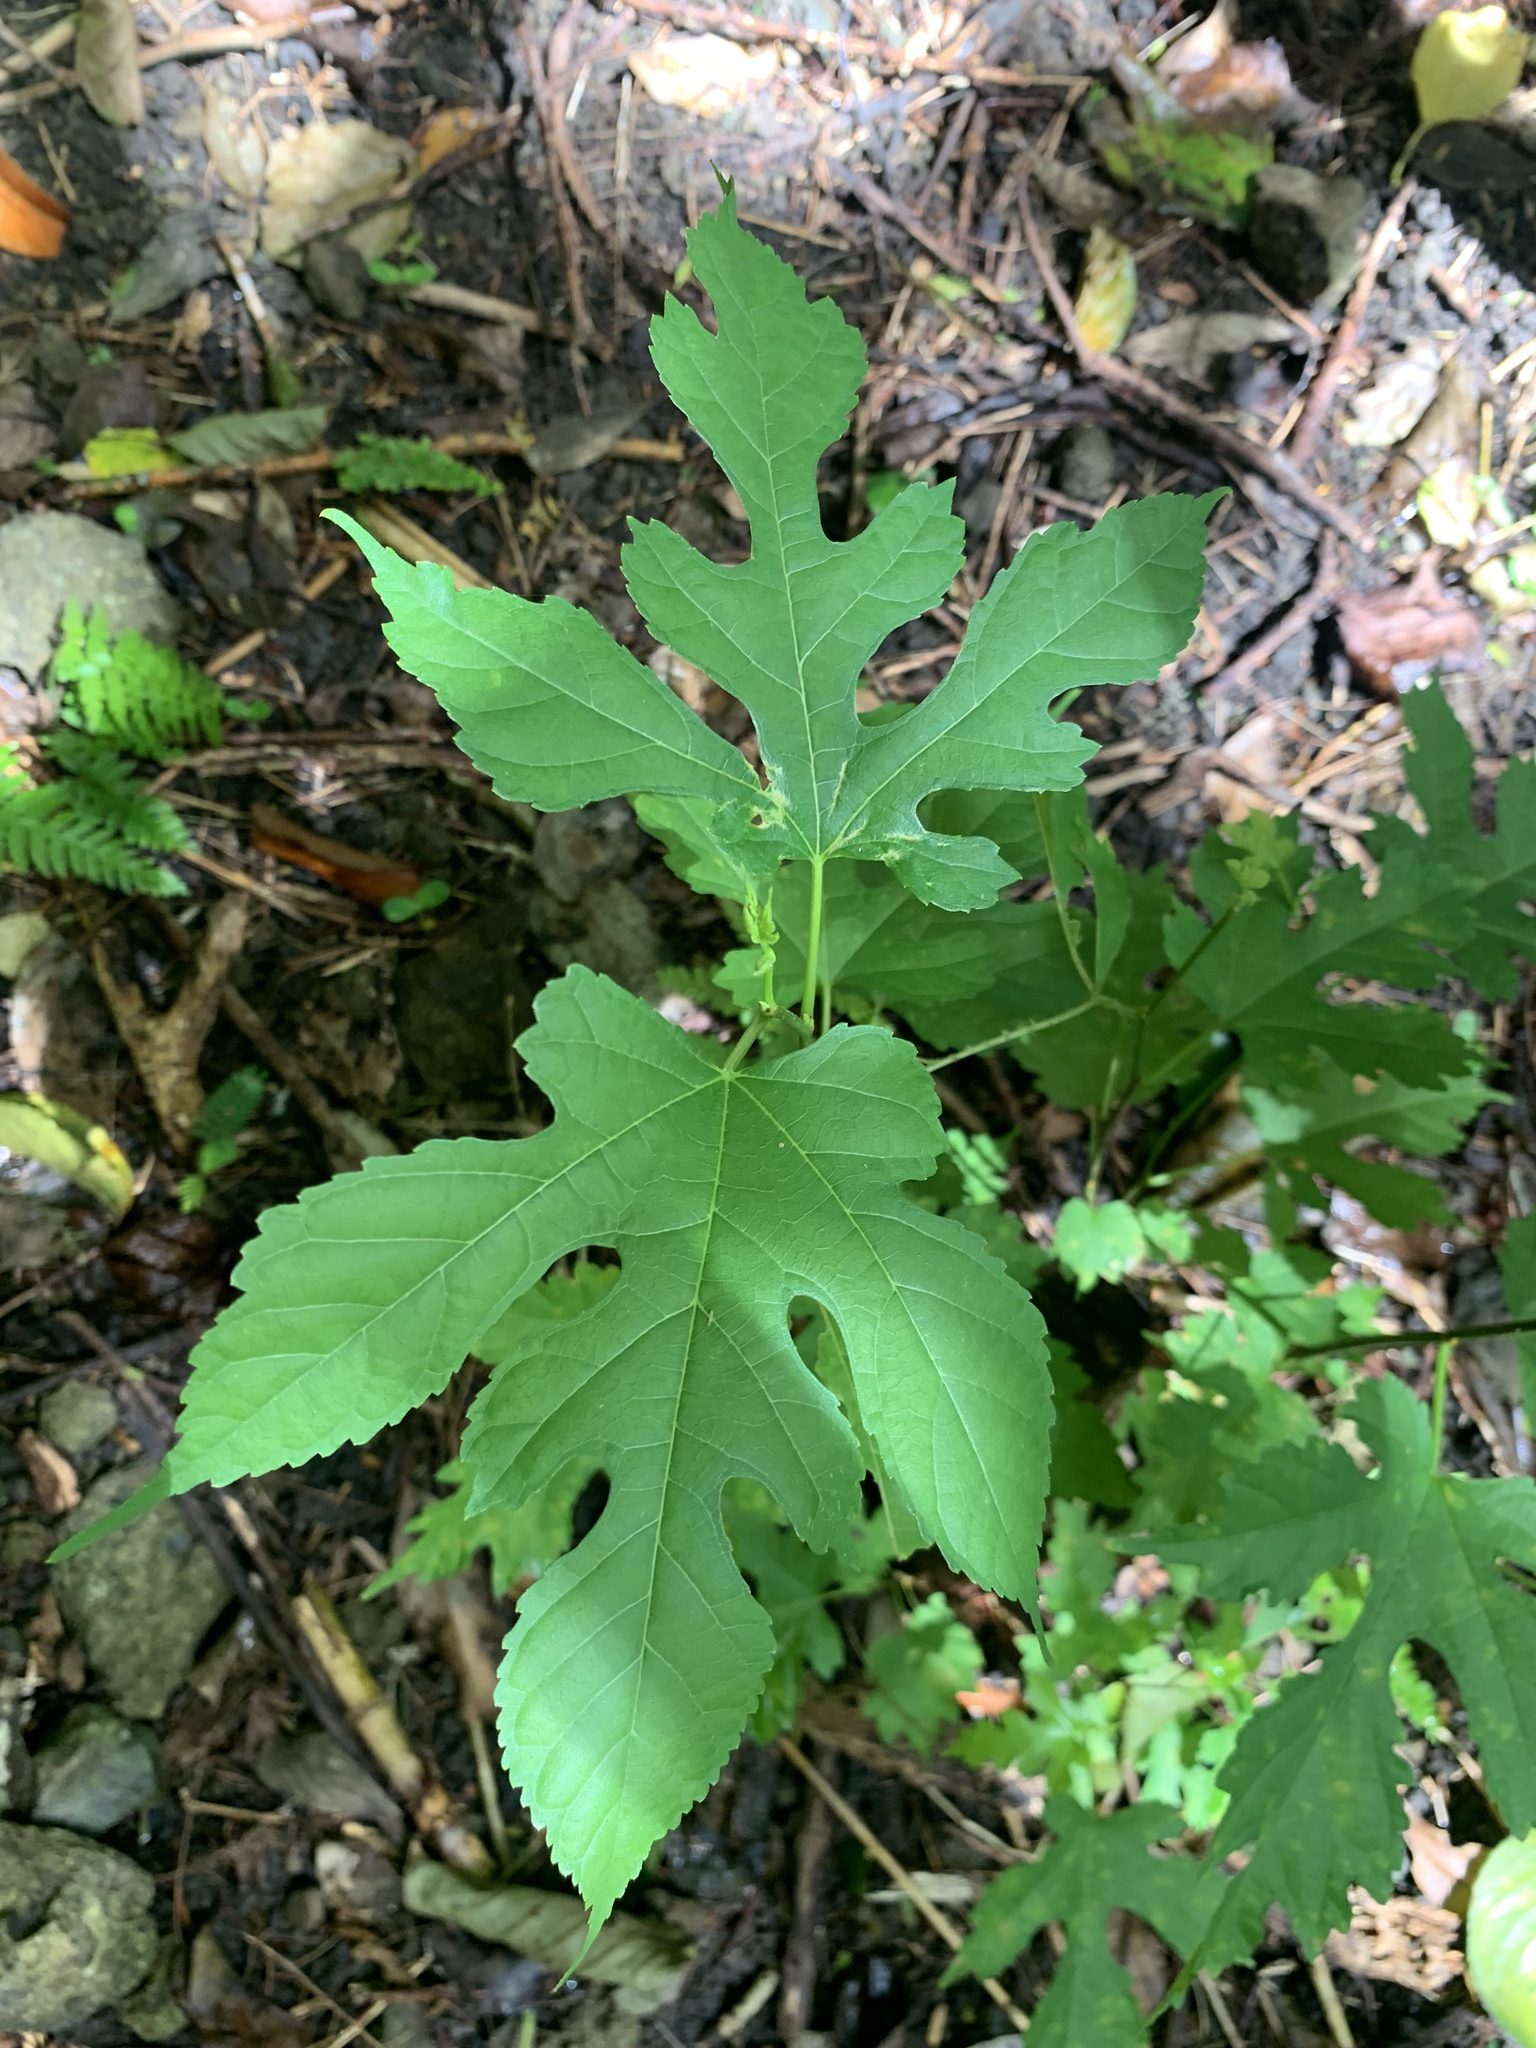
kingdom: Plantae
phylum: Tracheophyta
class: Magnoliopsida
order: Rosales
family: Moraceae
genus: Morus
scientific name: Morus indica
